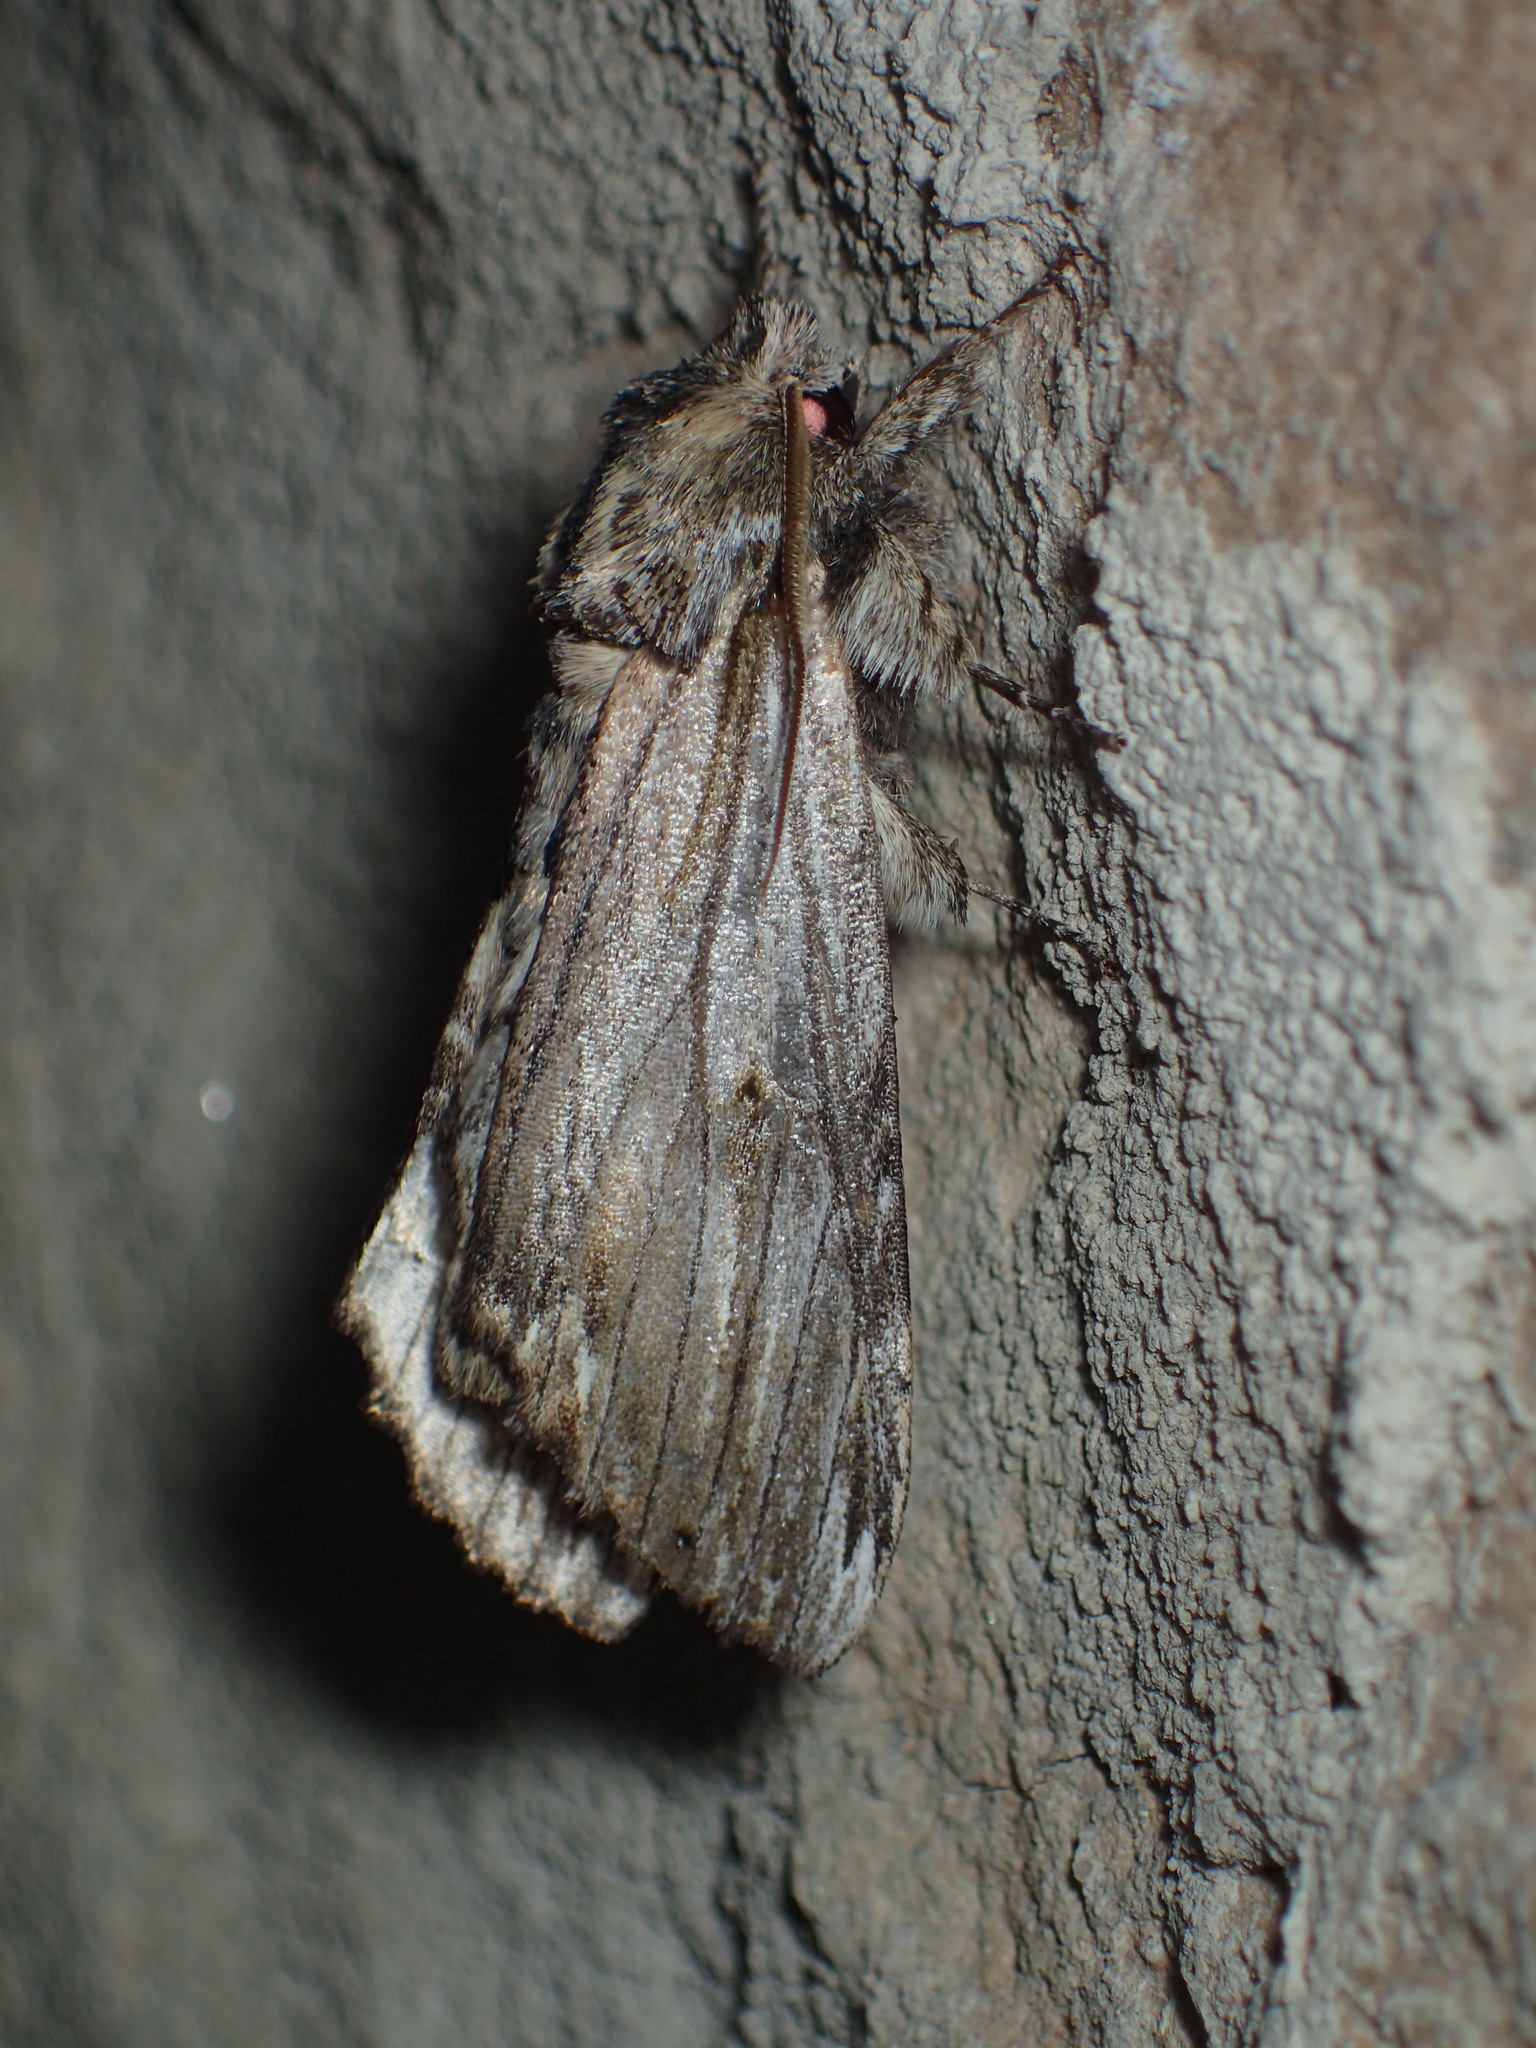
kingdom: Animalia
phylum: Arthropoda
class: Insecta
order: Lepidoptera
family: Notodontidae
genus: Oligocentria
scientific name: Oligocentria Ianassa lignicolor
